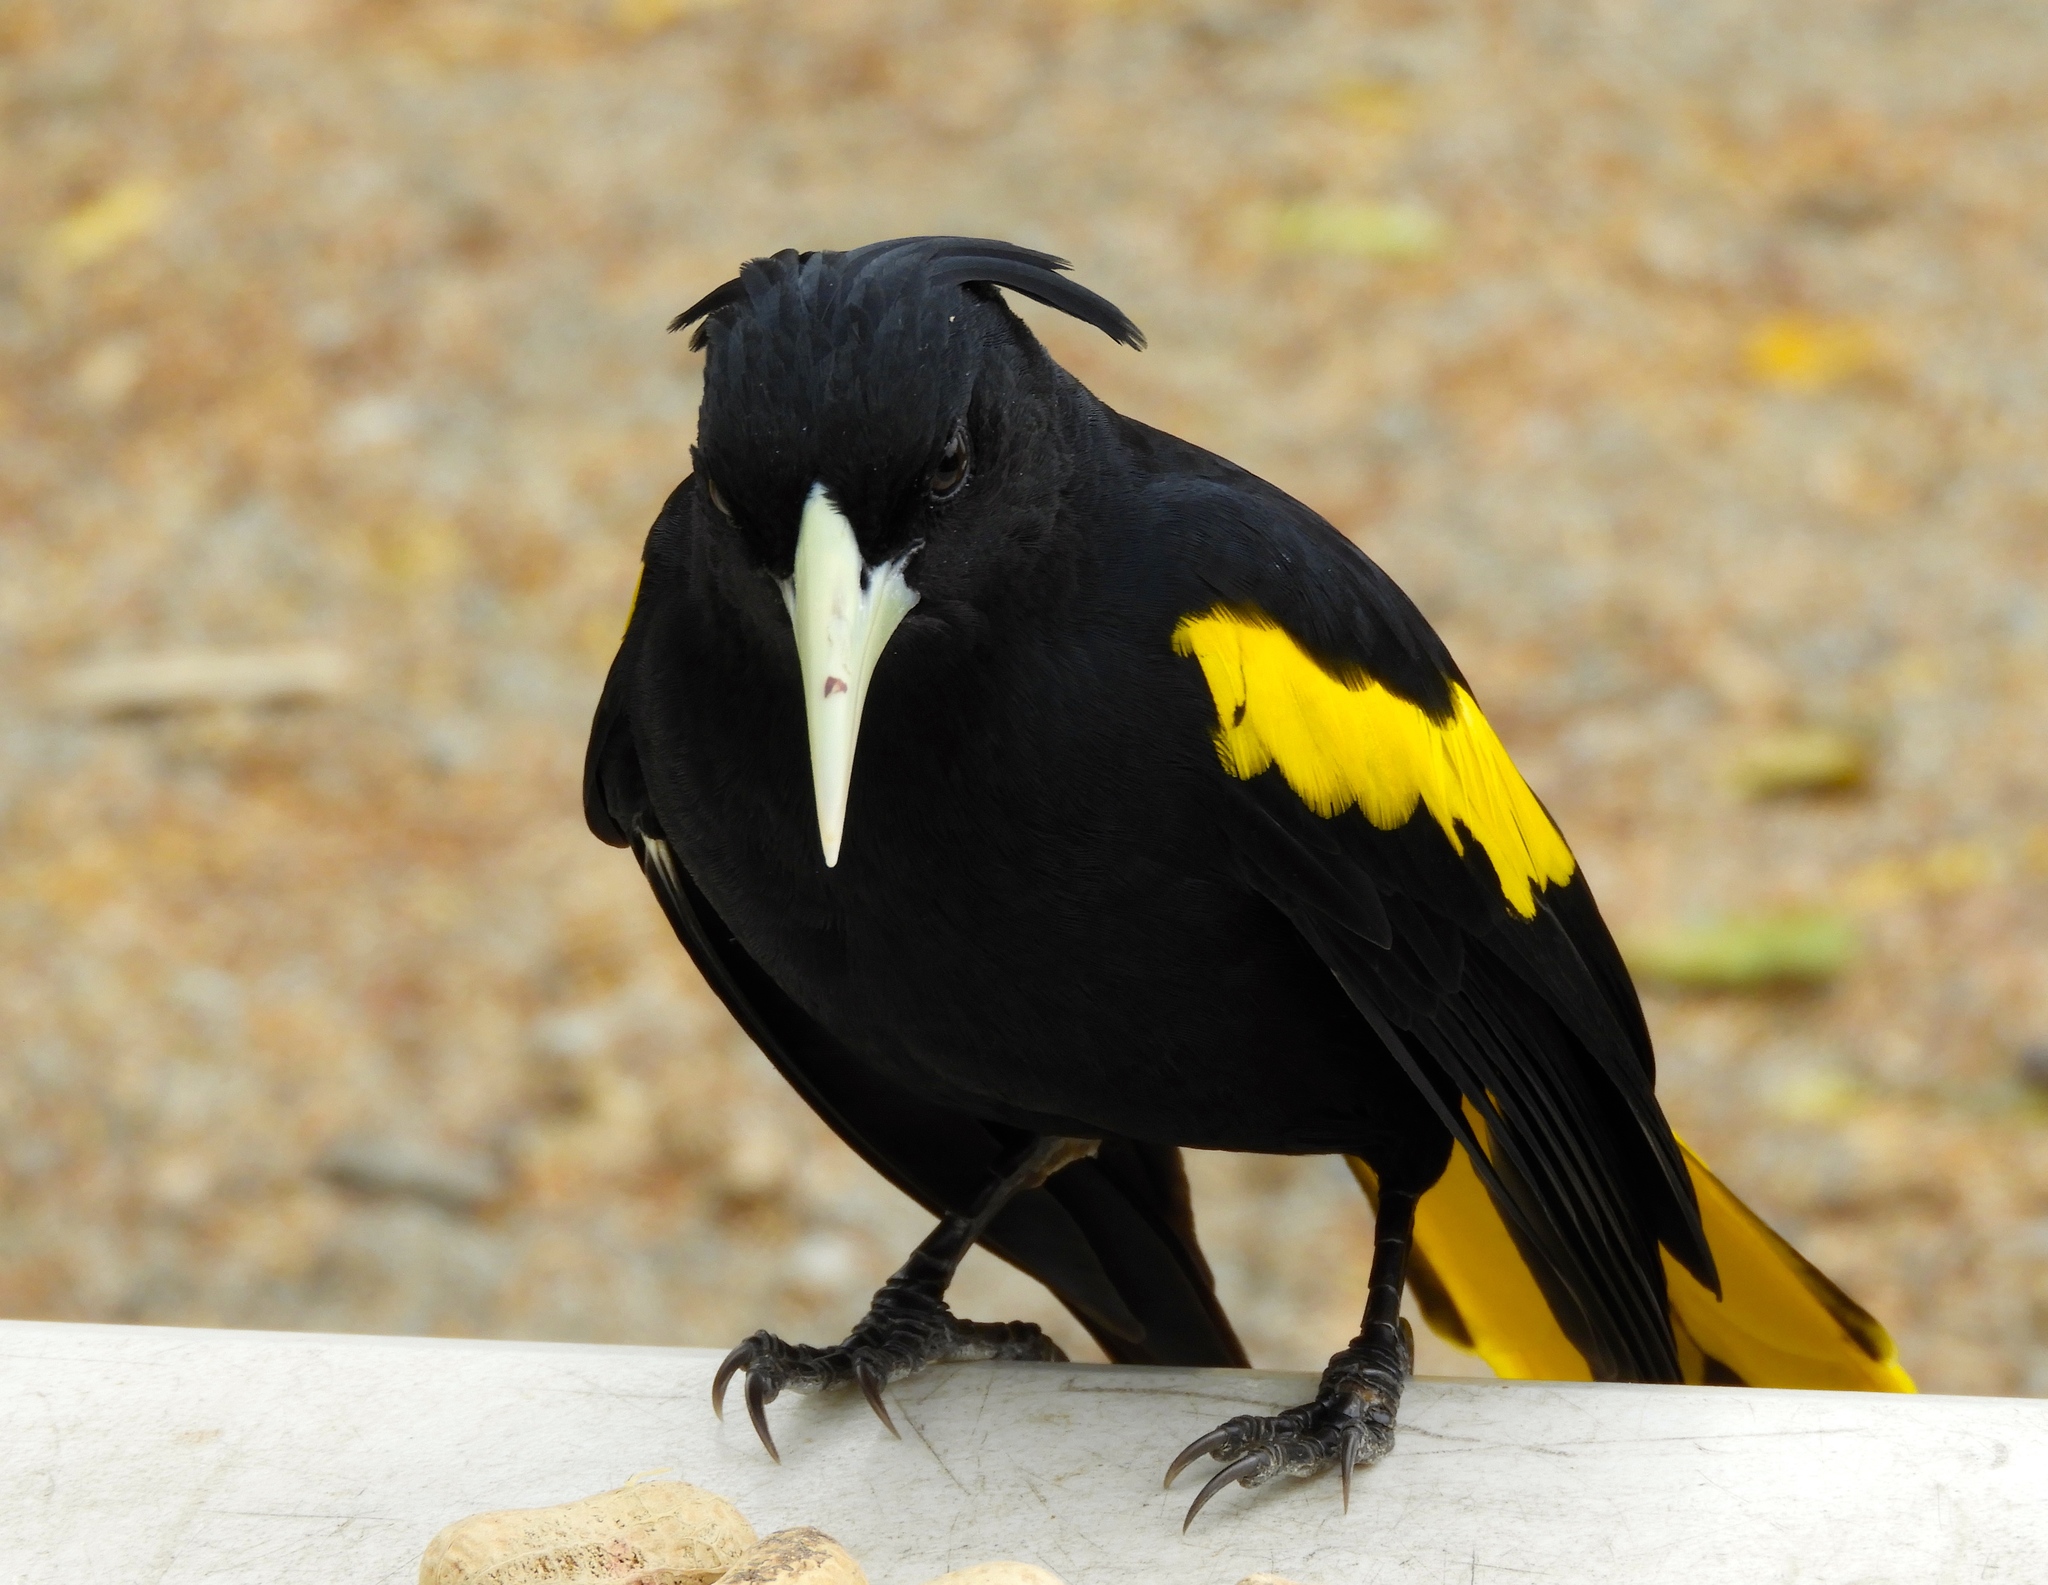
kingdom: Animalia
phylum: Chordata
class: Aves
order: Passeriformes
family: Icteridae
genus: Cacicus
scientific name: Cacicus melanicterus
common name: Yellow-winged cacique
